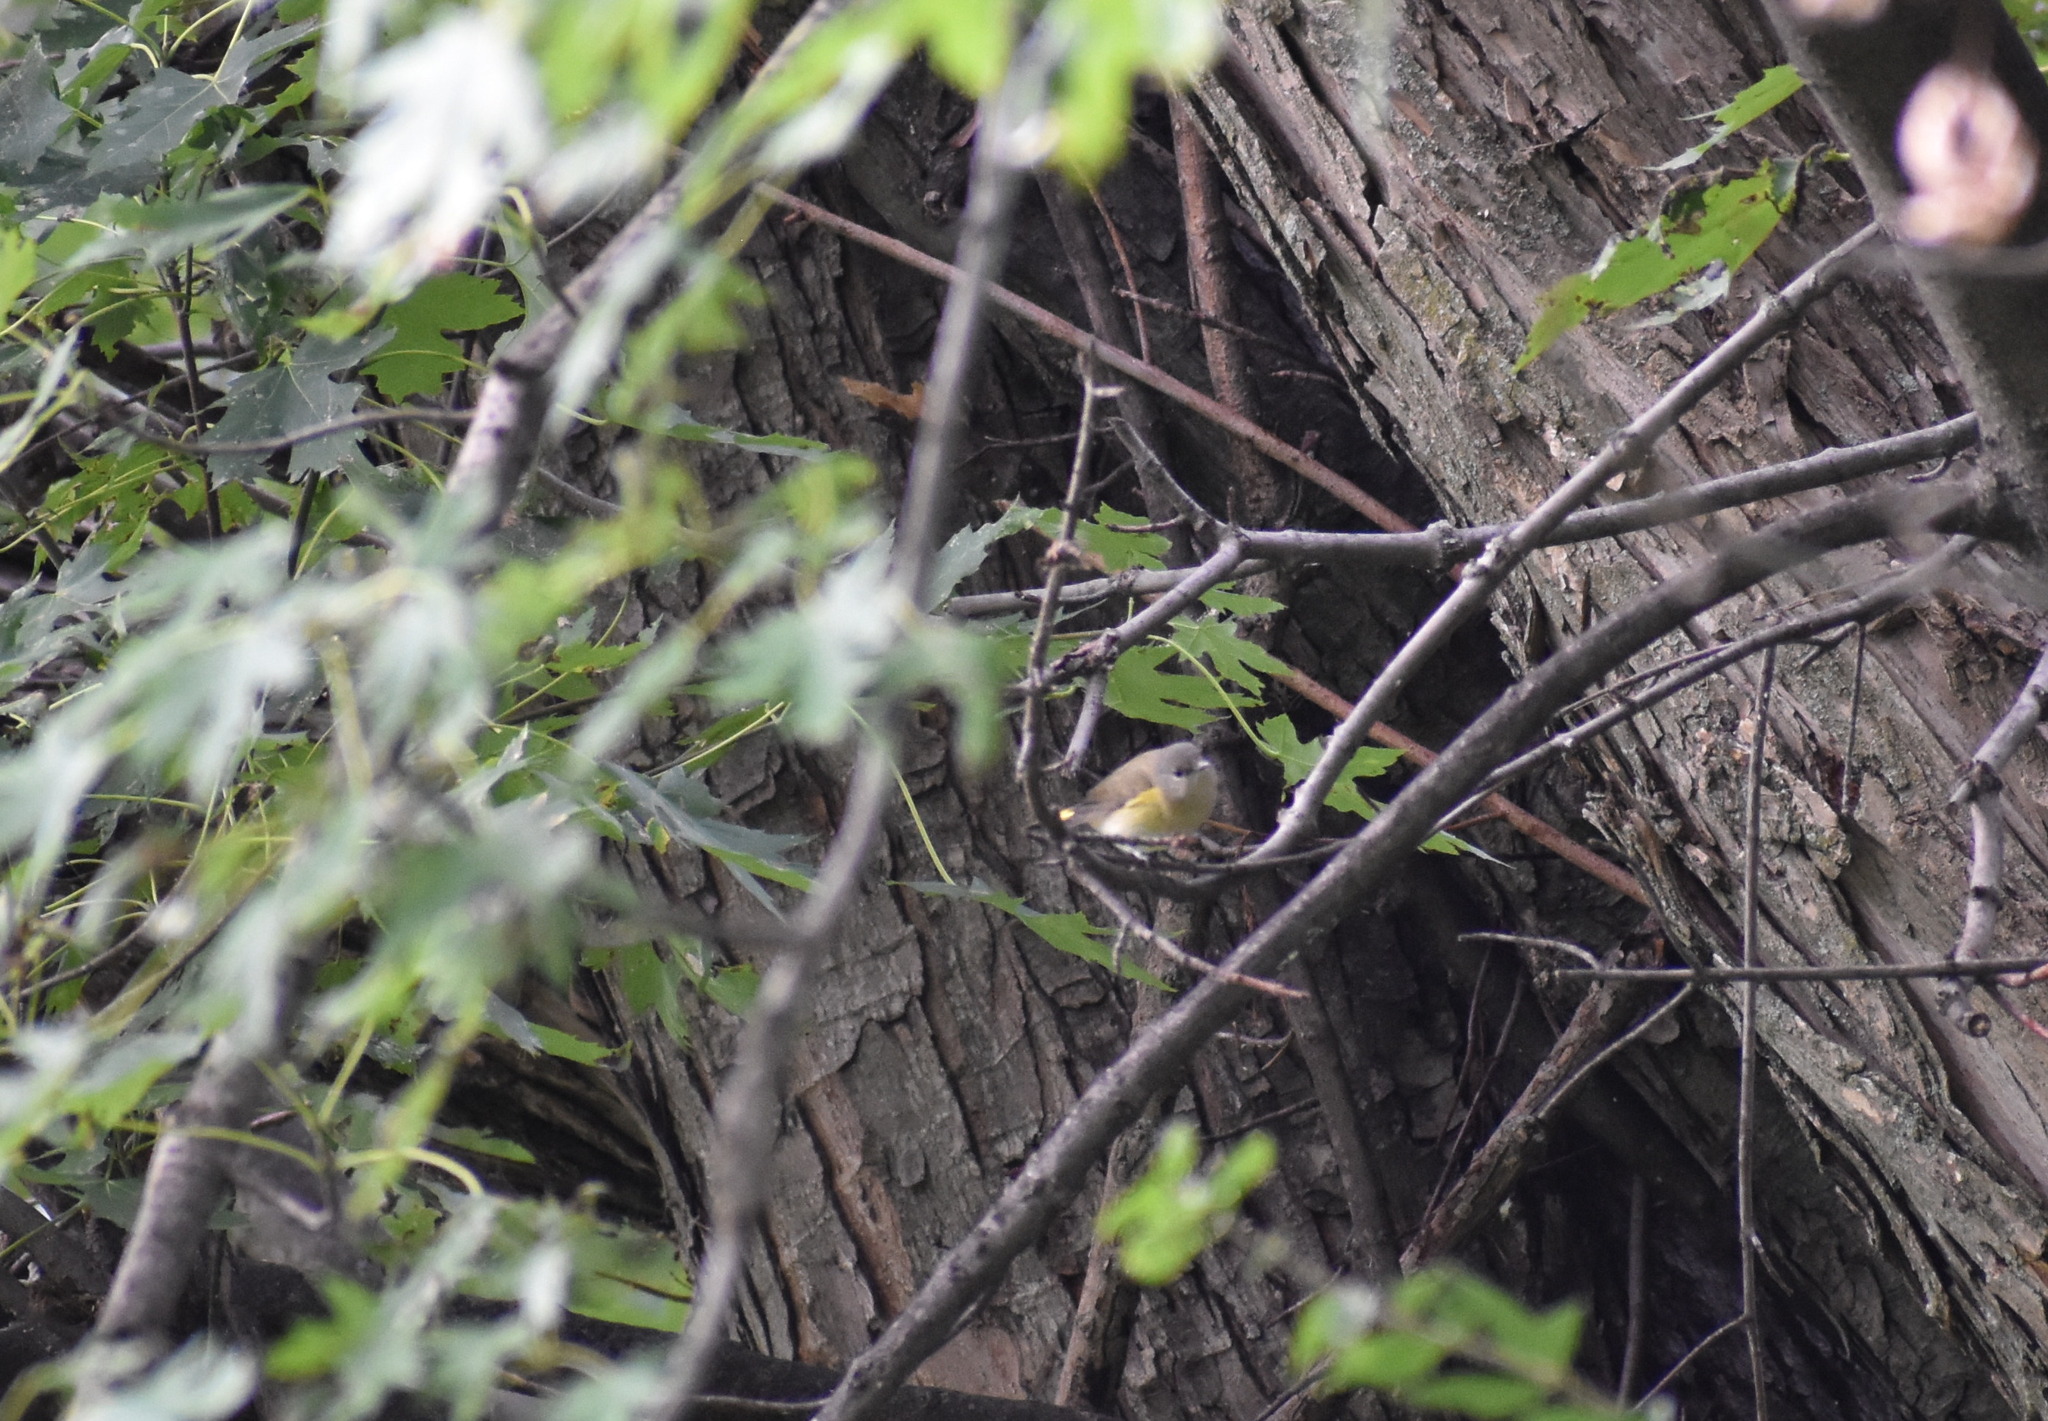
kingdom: Animalia
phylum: Chordata
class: Aves
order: Passeriformes
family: Parulidae
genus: Setophaga
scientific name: Setophaga ruticilla
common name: American redstart
